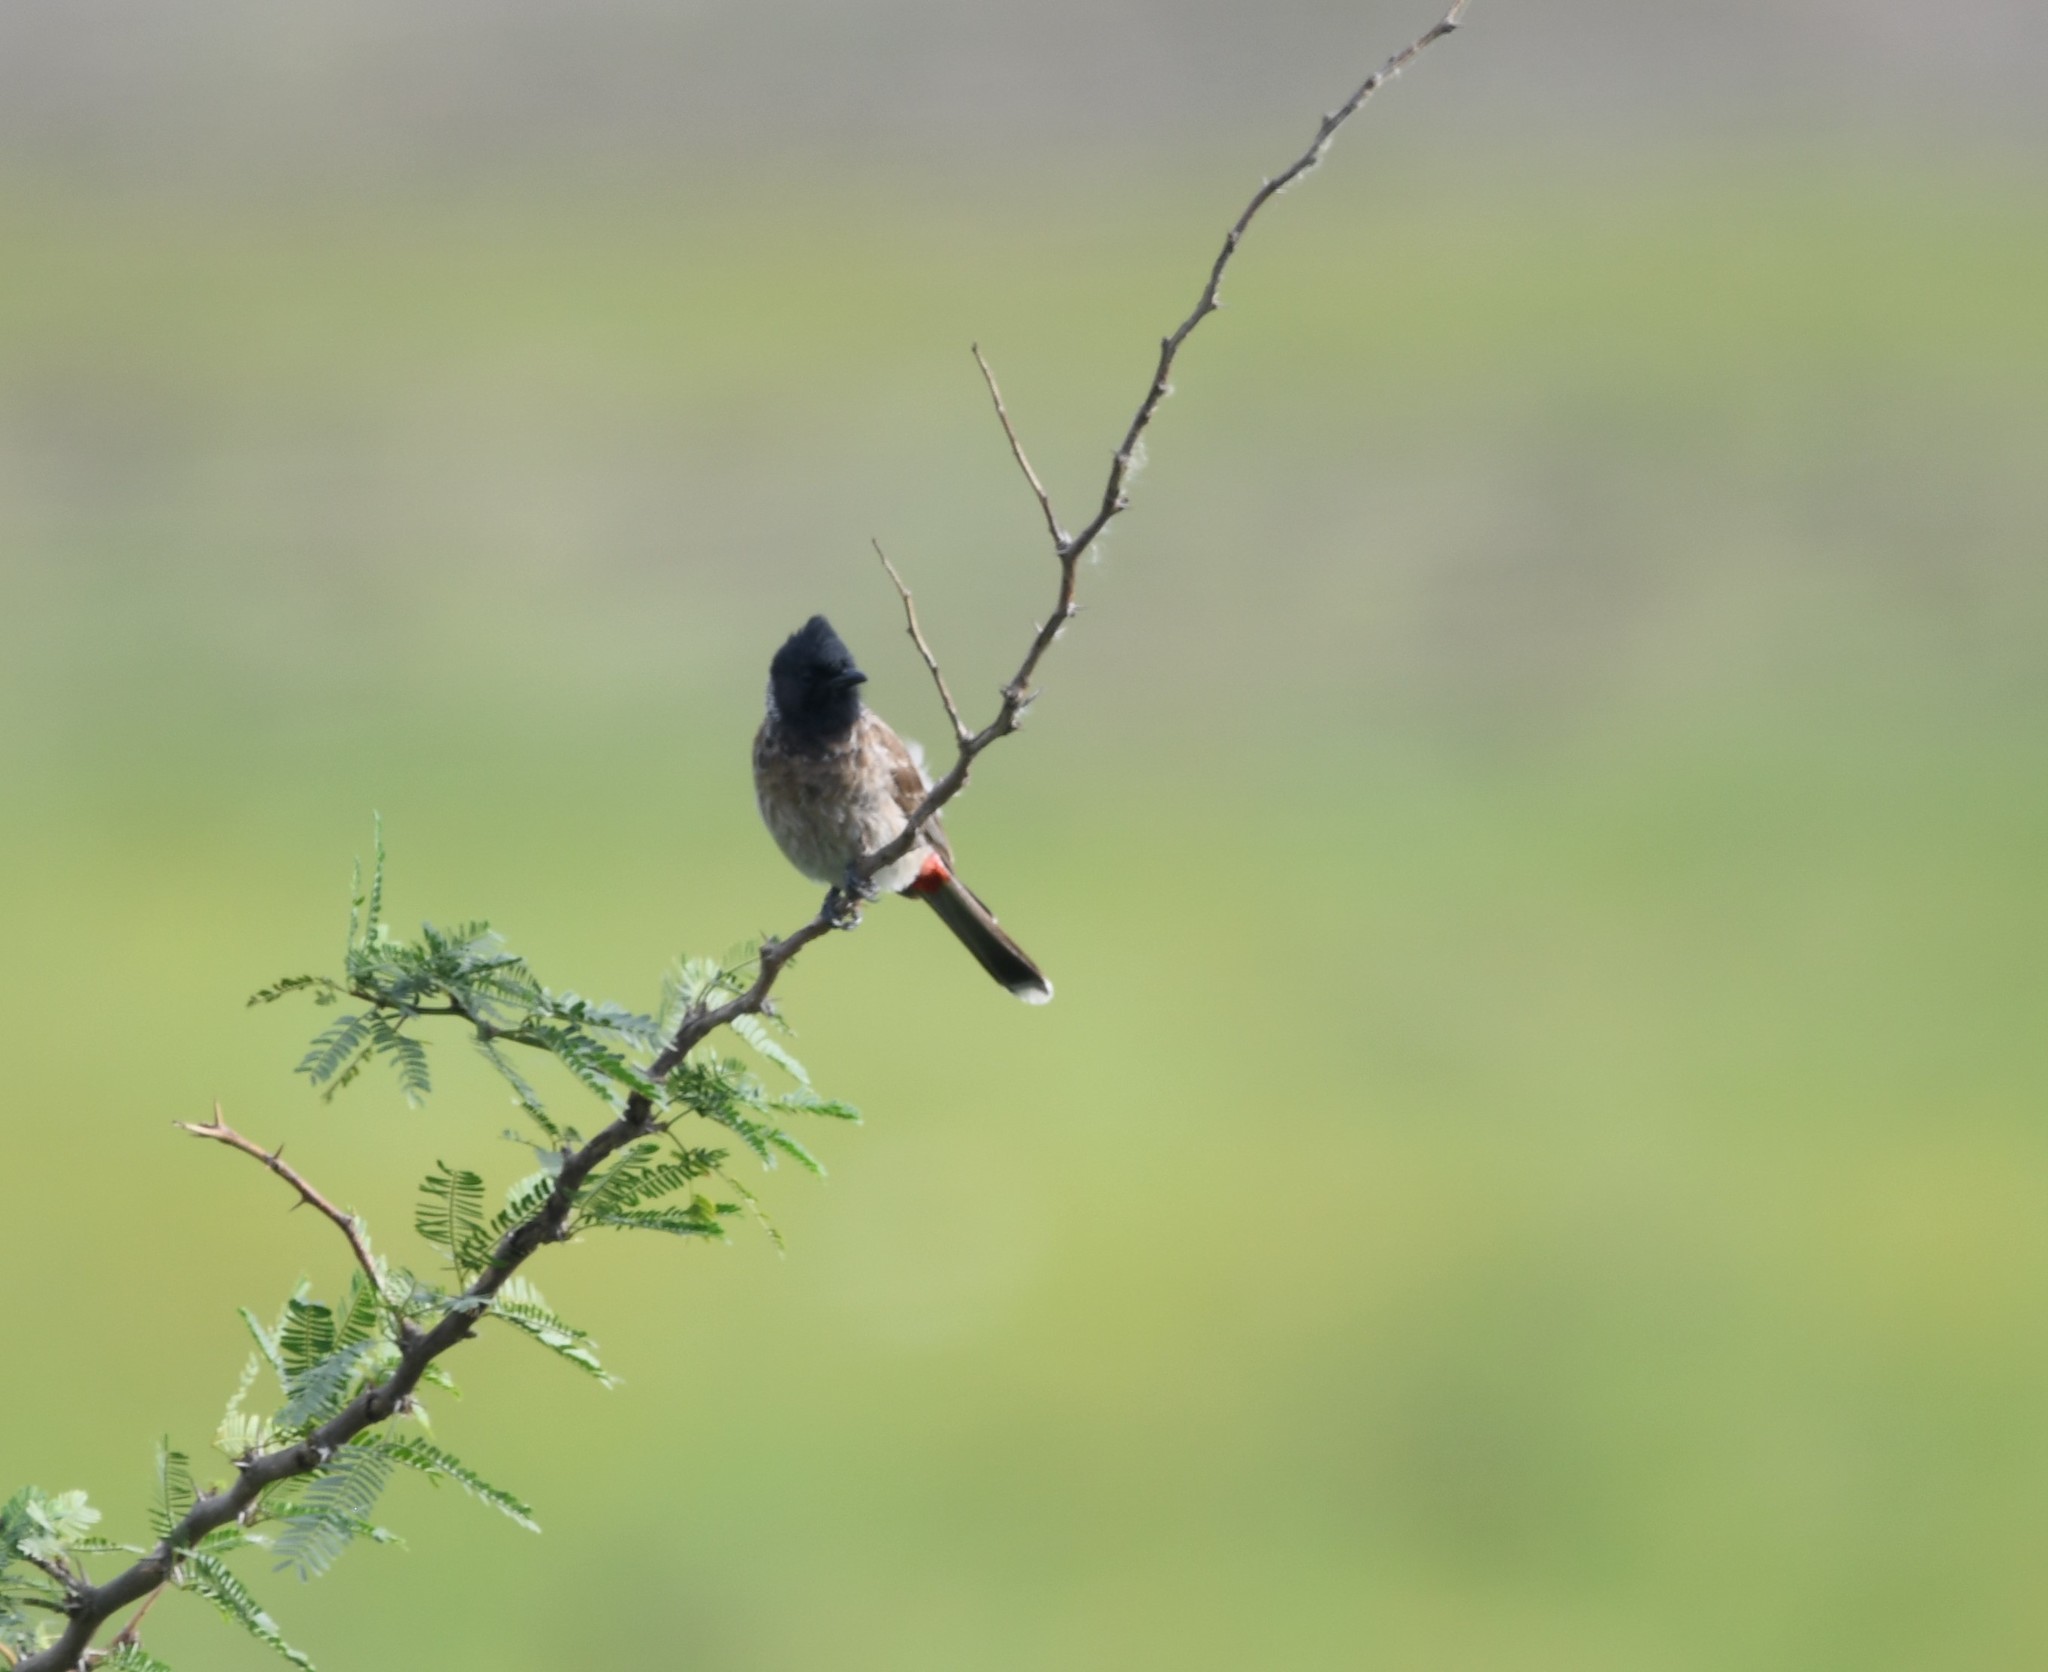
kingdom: Animalia
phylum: Chordata
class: Aves
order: Passeriformes
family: Pycnonotidae
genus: Pycnonotus
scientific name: Pycnonotus cafer
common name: Red-vented bulbul
